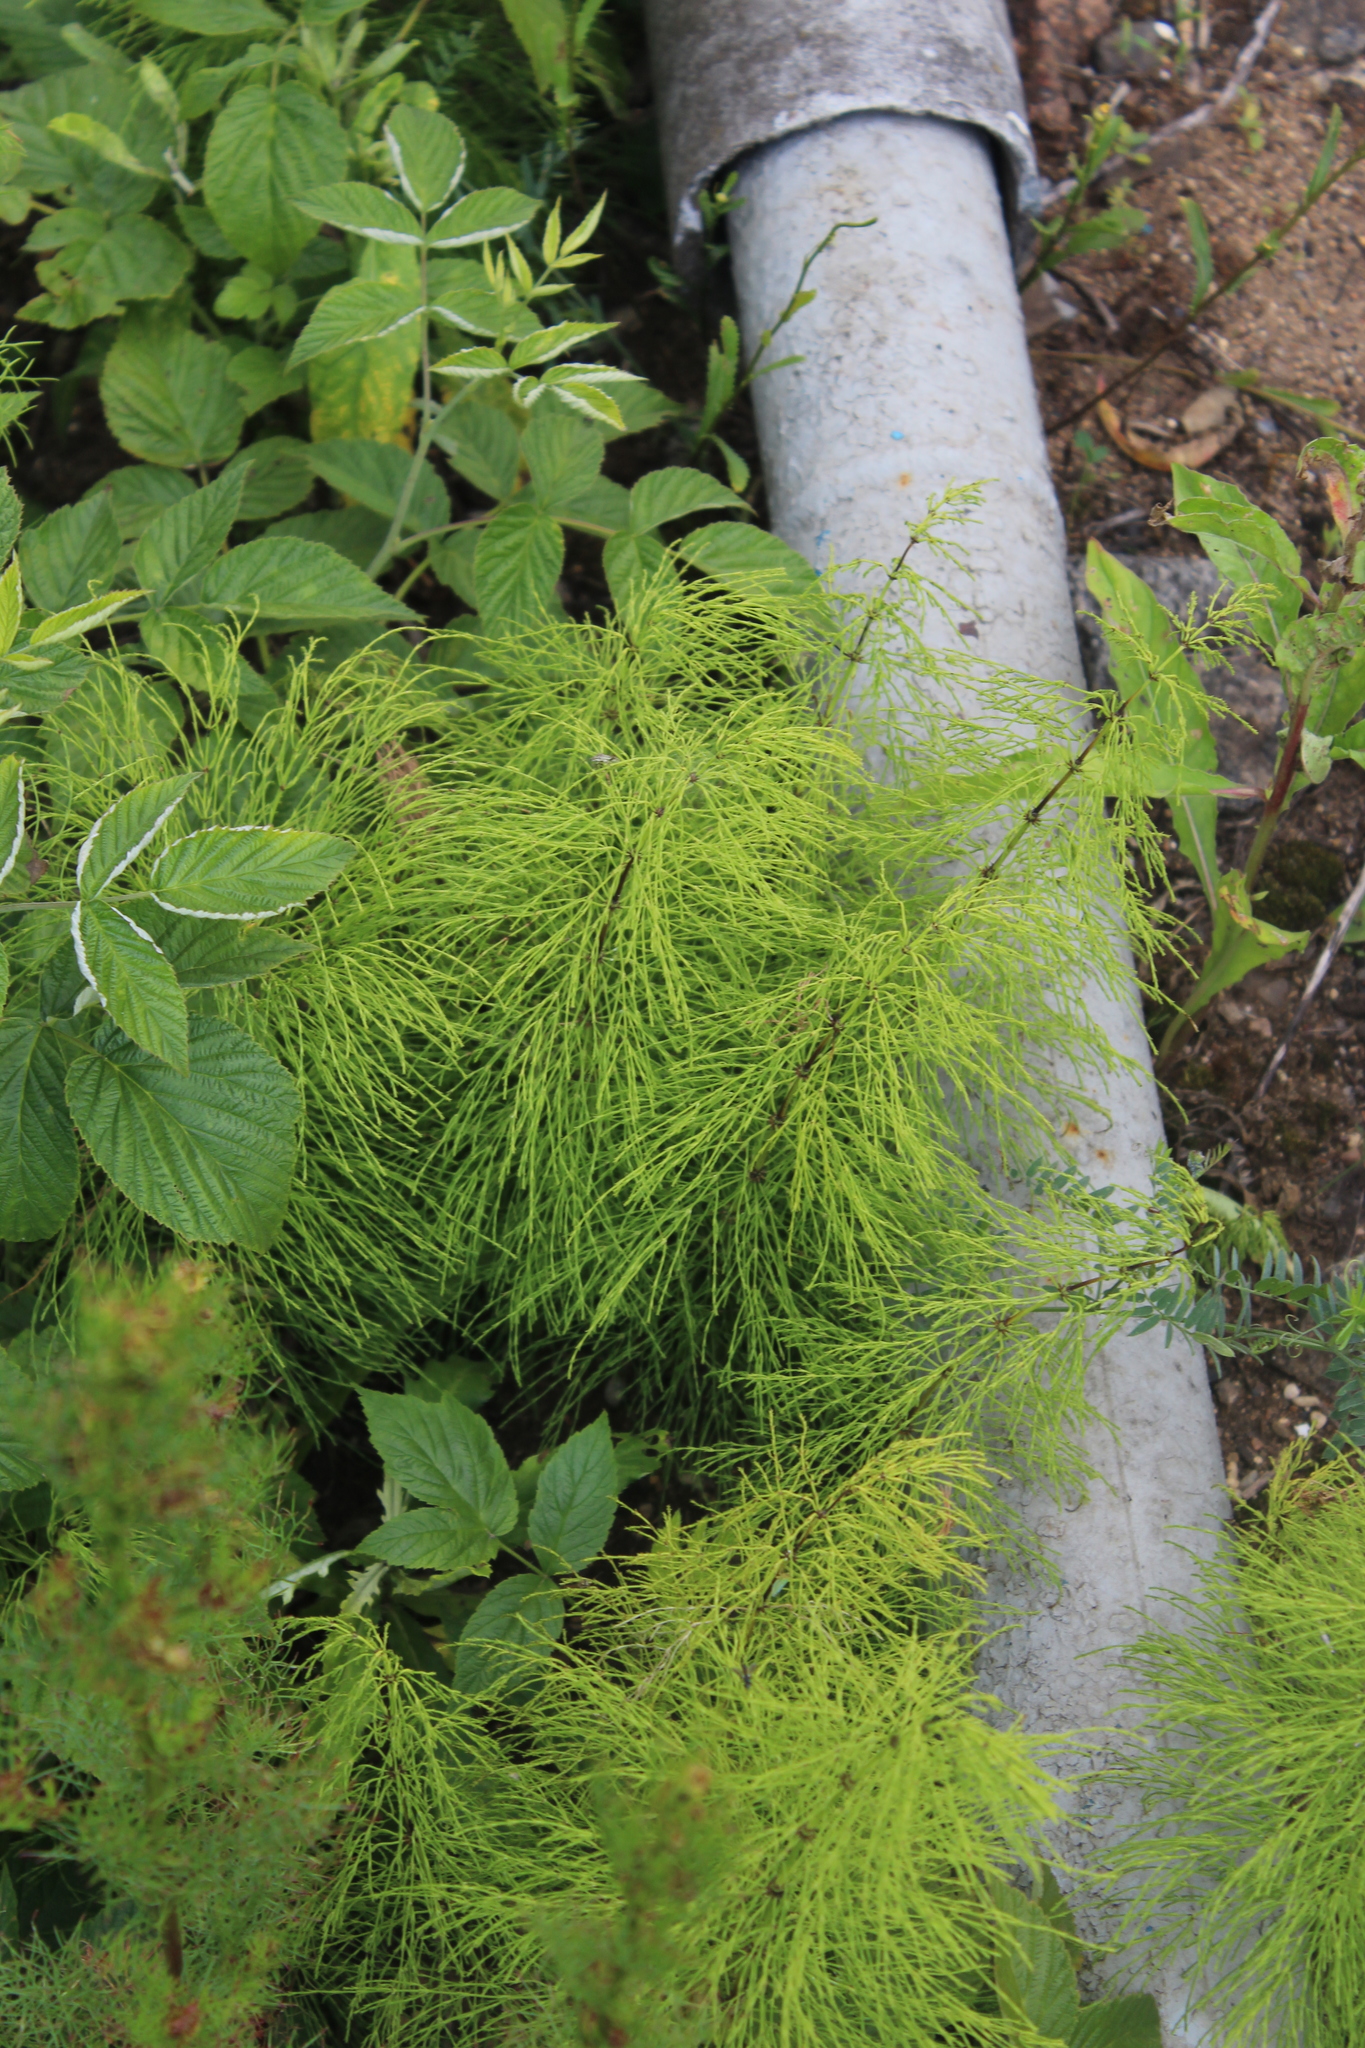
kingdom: Plantae
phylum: Tracheophyta
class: Polypodiopsida
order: Equisetales
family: Equisetaceae
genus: Equisetum
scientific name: Equisetum sylvaticum
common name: Wood horsetail
